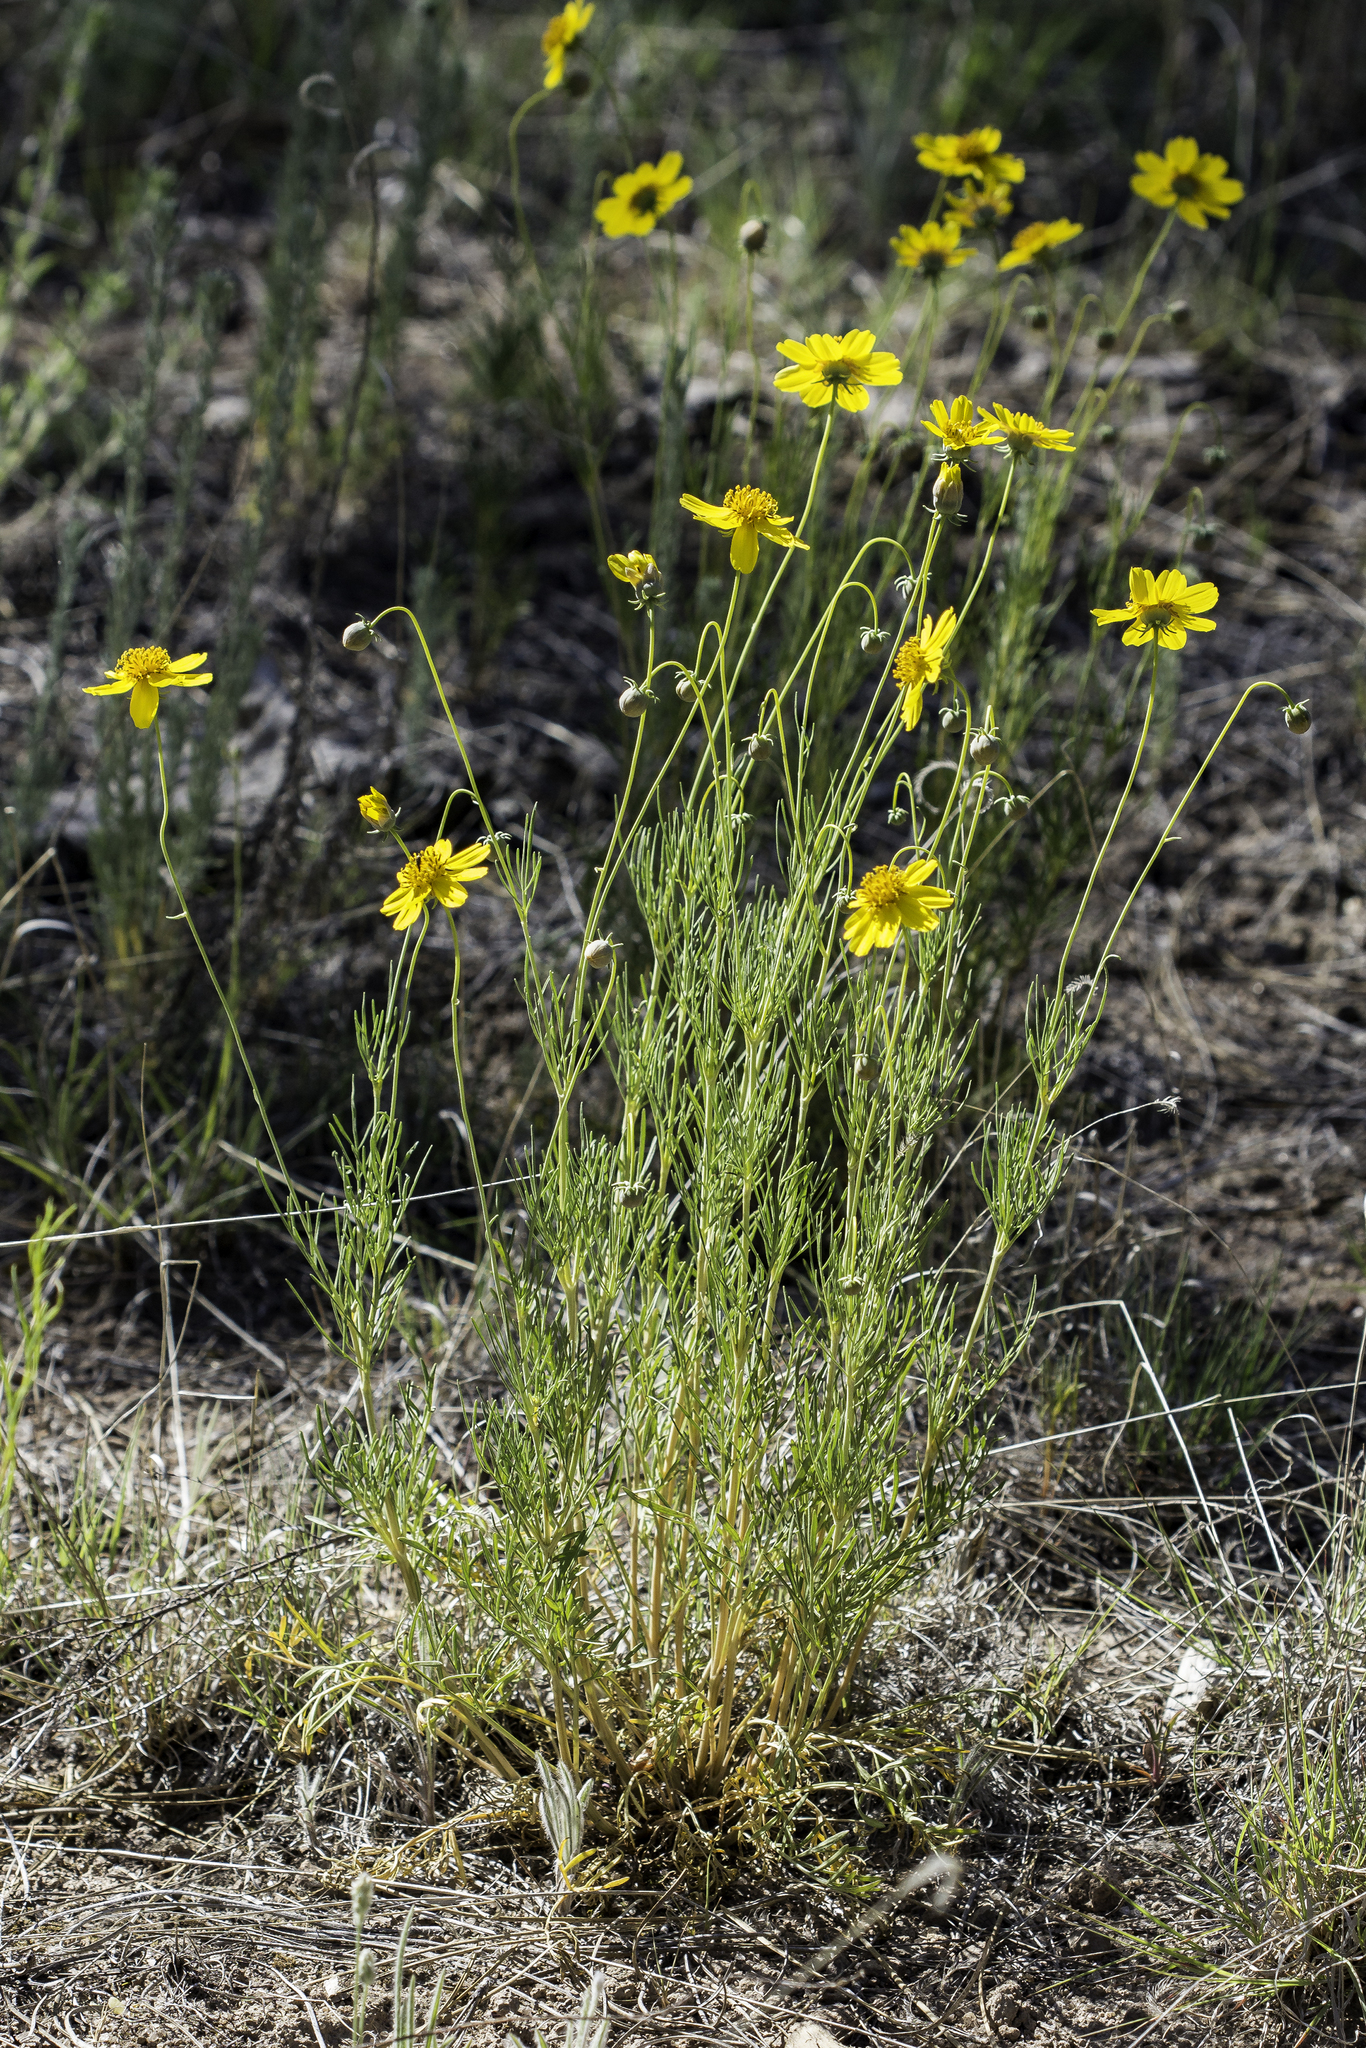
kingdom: Plantae
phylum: Tracheophyta
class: Magnoliopsida
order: Asterales
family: Asteraceae
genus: Thelesperma
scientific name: Thelesperma filifolium
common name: Stiff greenthread
